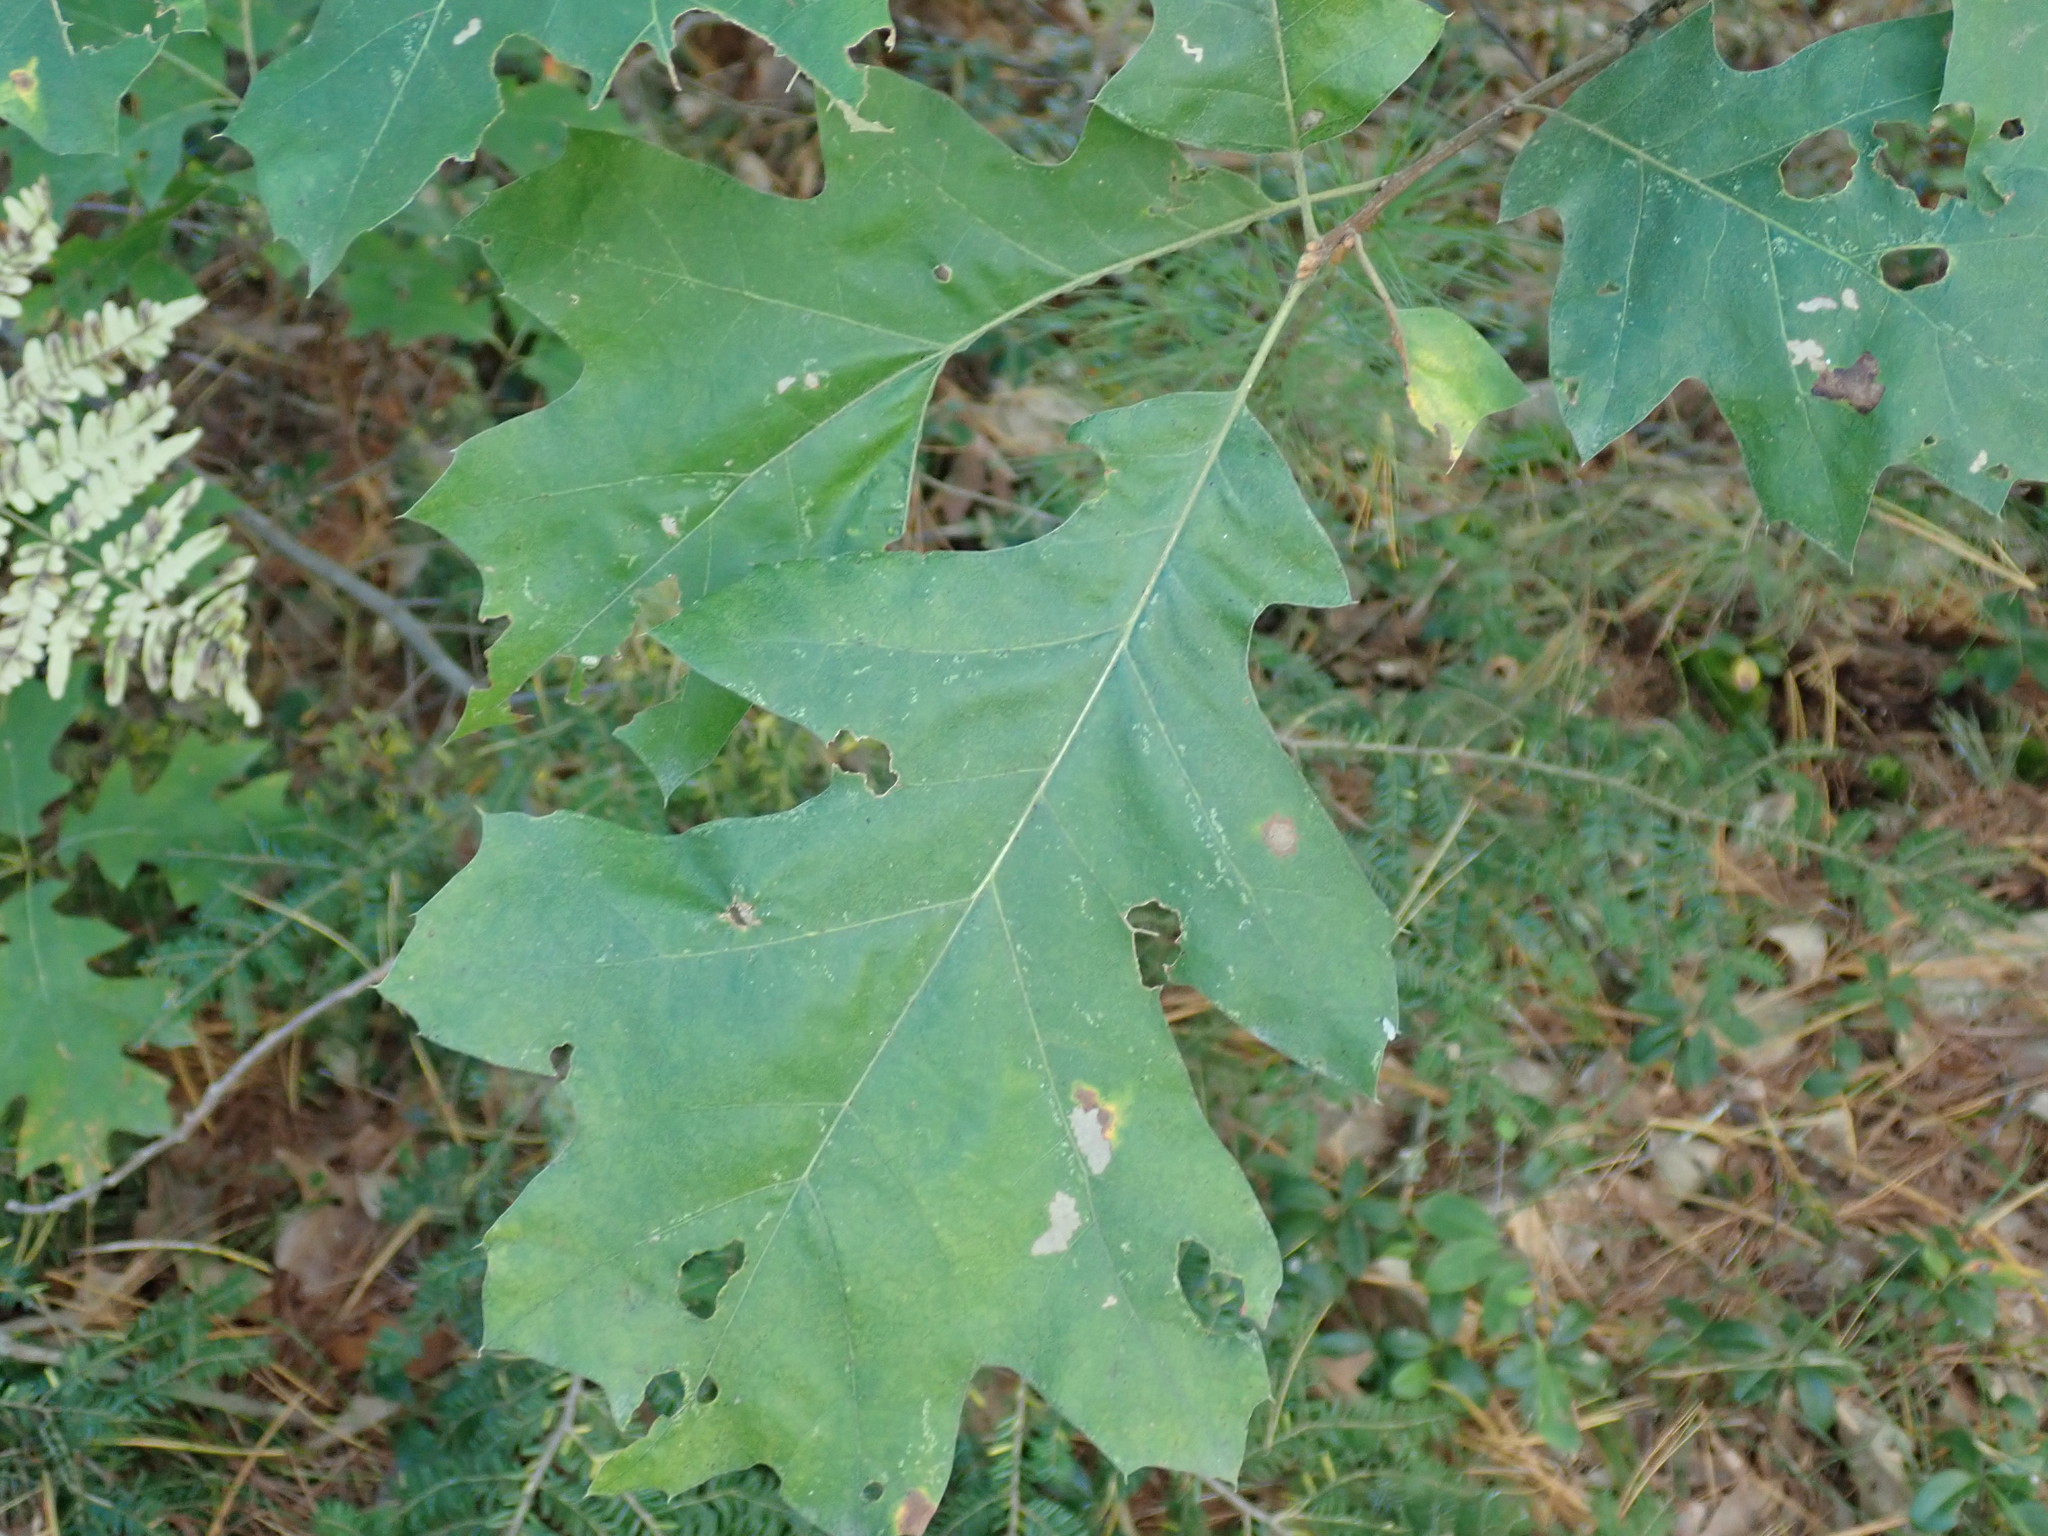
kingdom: Plantae
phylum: Tracheophyta
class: Magnoliopsida
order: Fagales
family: Fagaceae
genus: Quercus
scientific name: Quercus rubra
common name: Red oak
